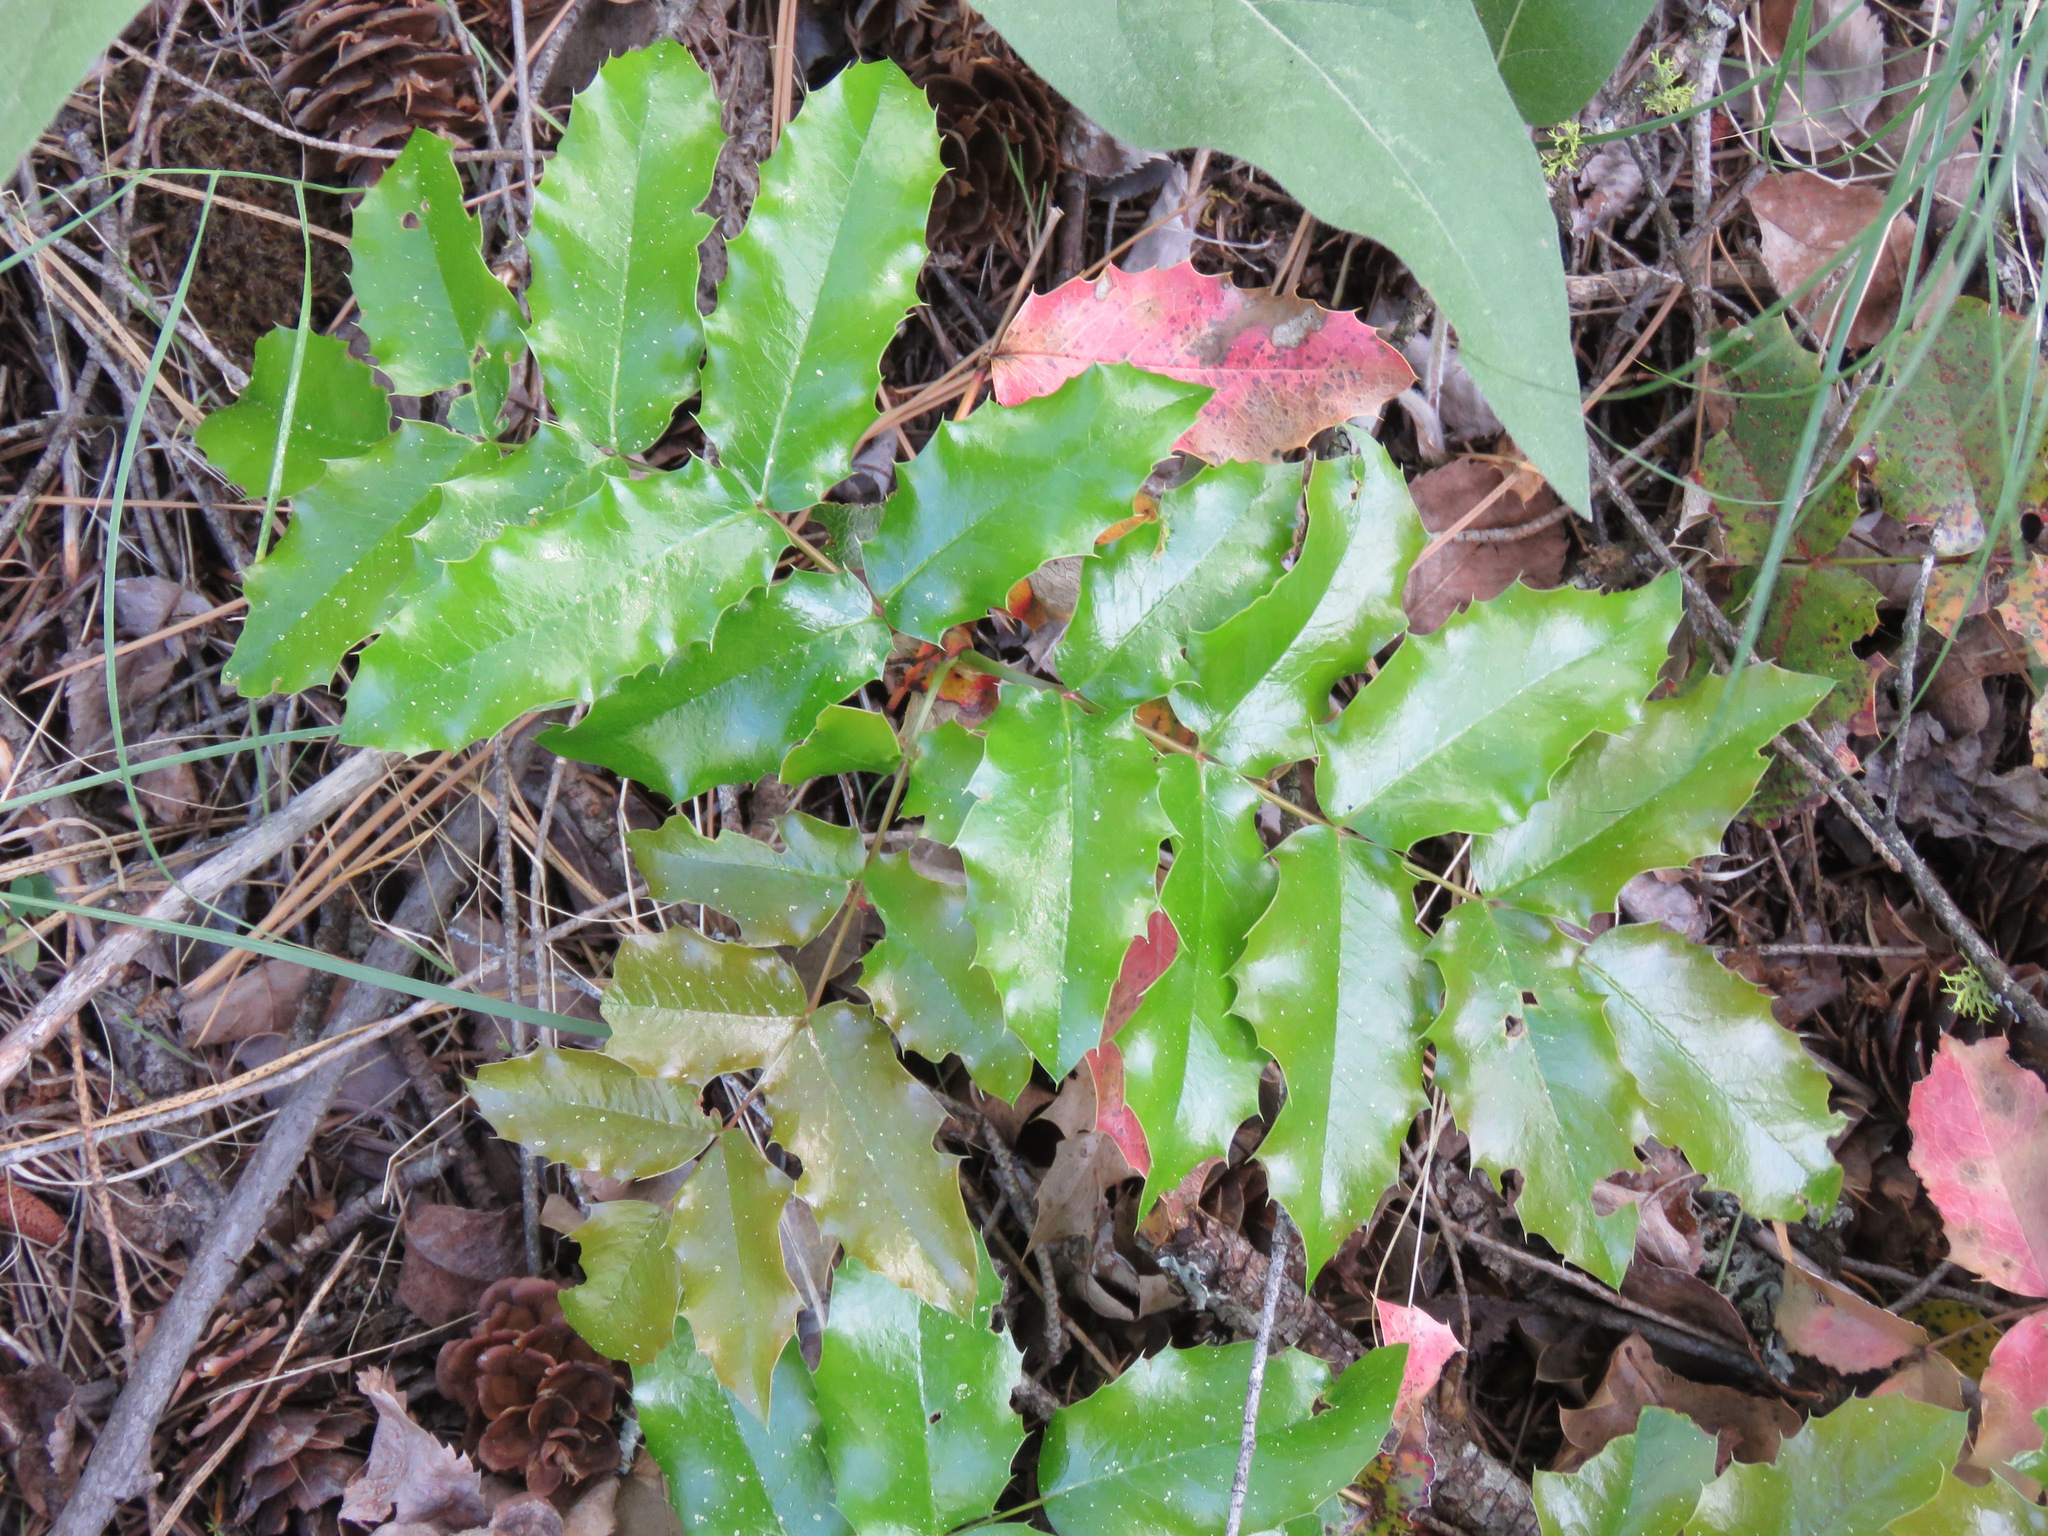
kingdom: Plantae
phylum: Tracheophyta
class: Magnoliopsida
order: Ranunculales
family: Berberidaceae
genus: Mahonia
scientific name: Mahonia aquifolium
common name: Oregon-grape
